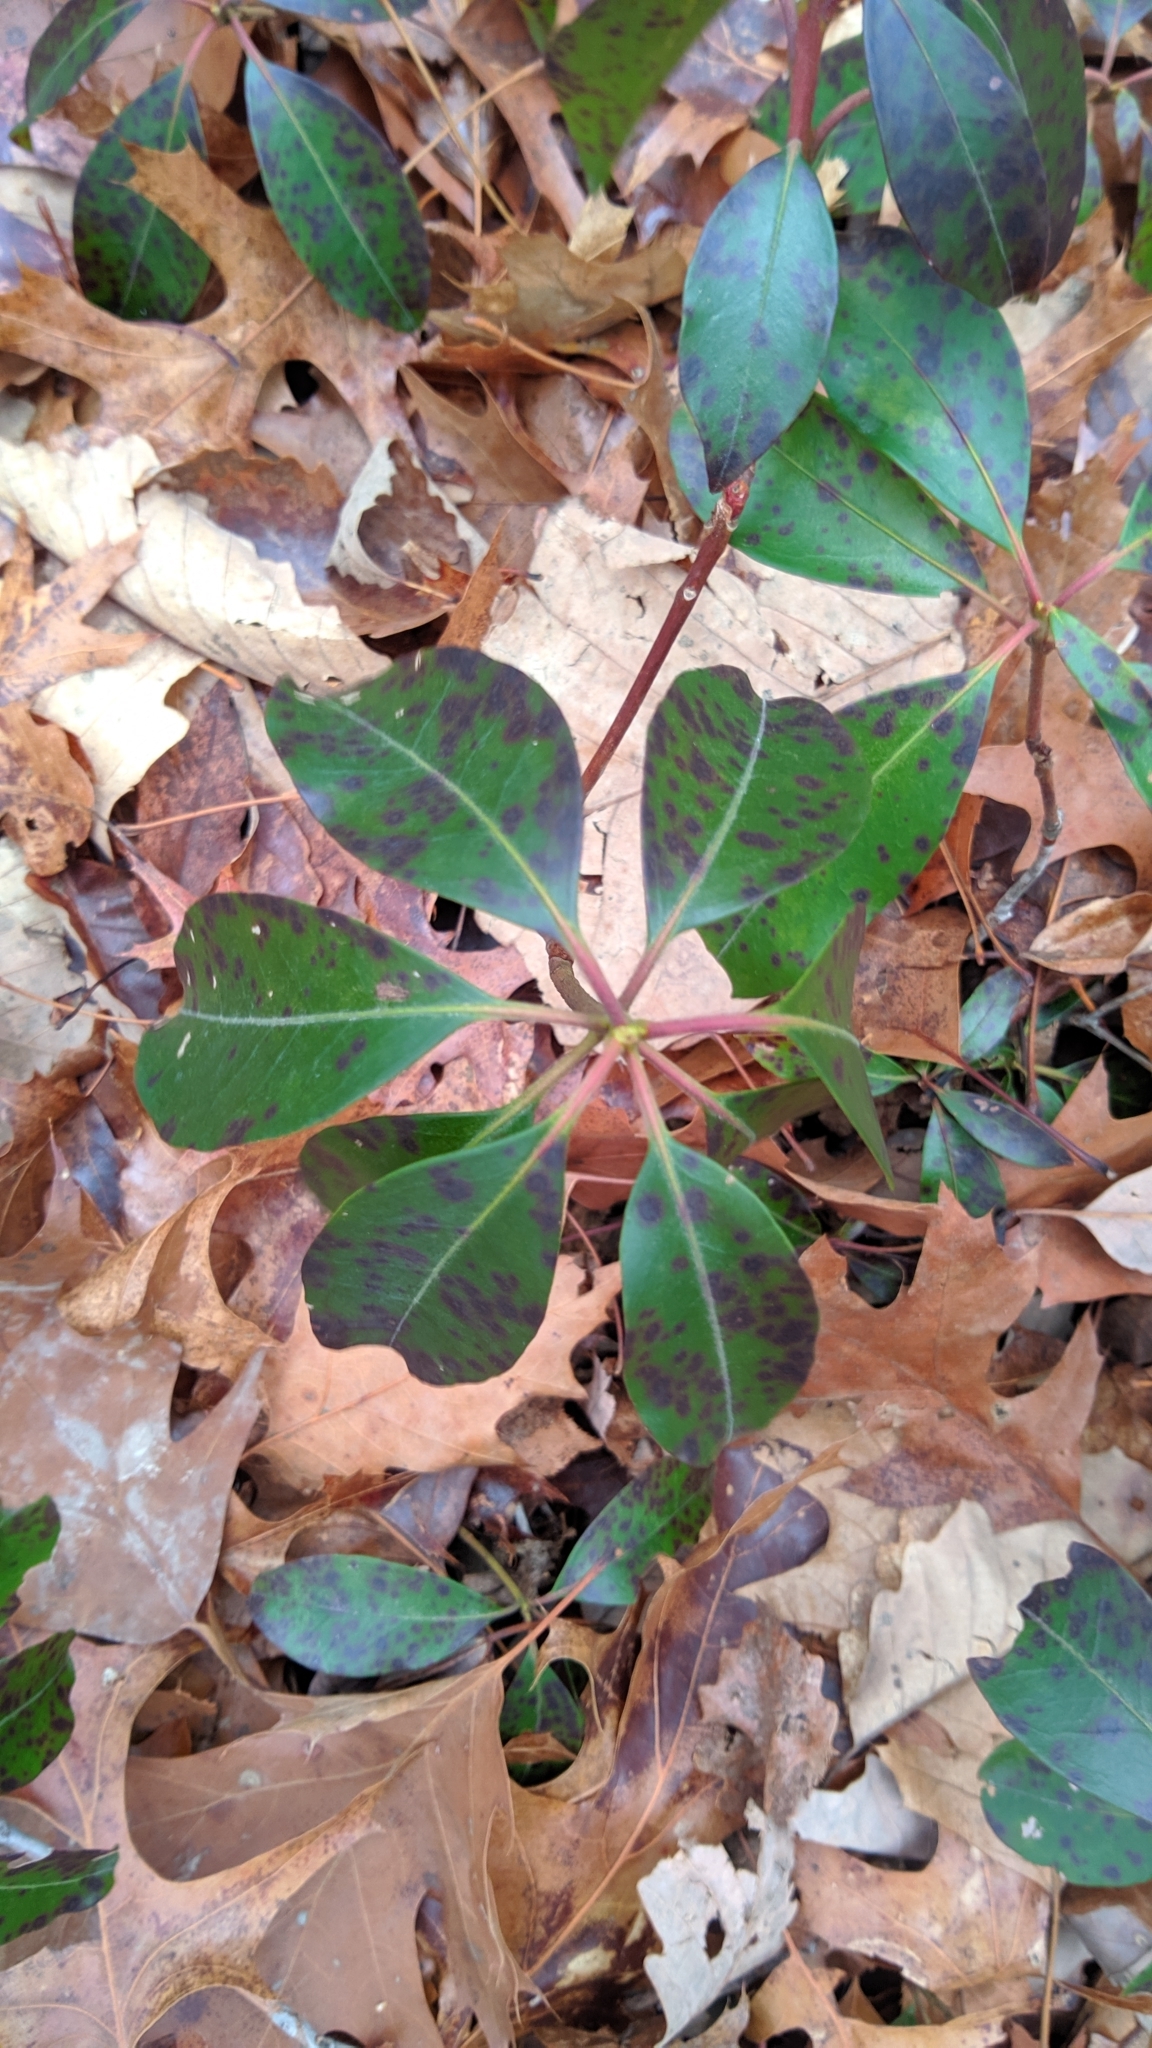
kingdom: Plantae
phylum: Tracheophyta
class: Magnoliopsida
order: Ericales
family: Ericaceae
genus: Kalmia
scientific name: Kalmia latifolia
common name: Mountain-laurel
